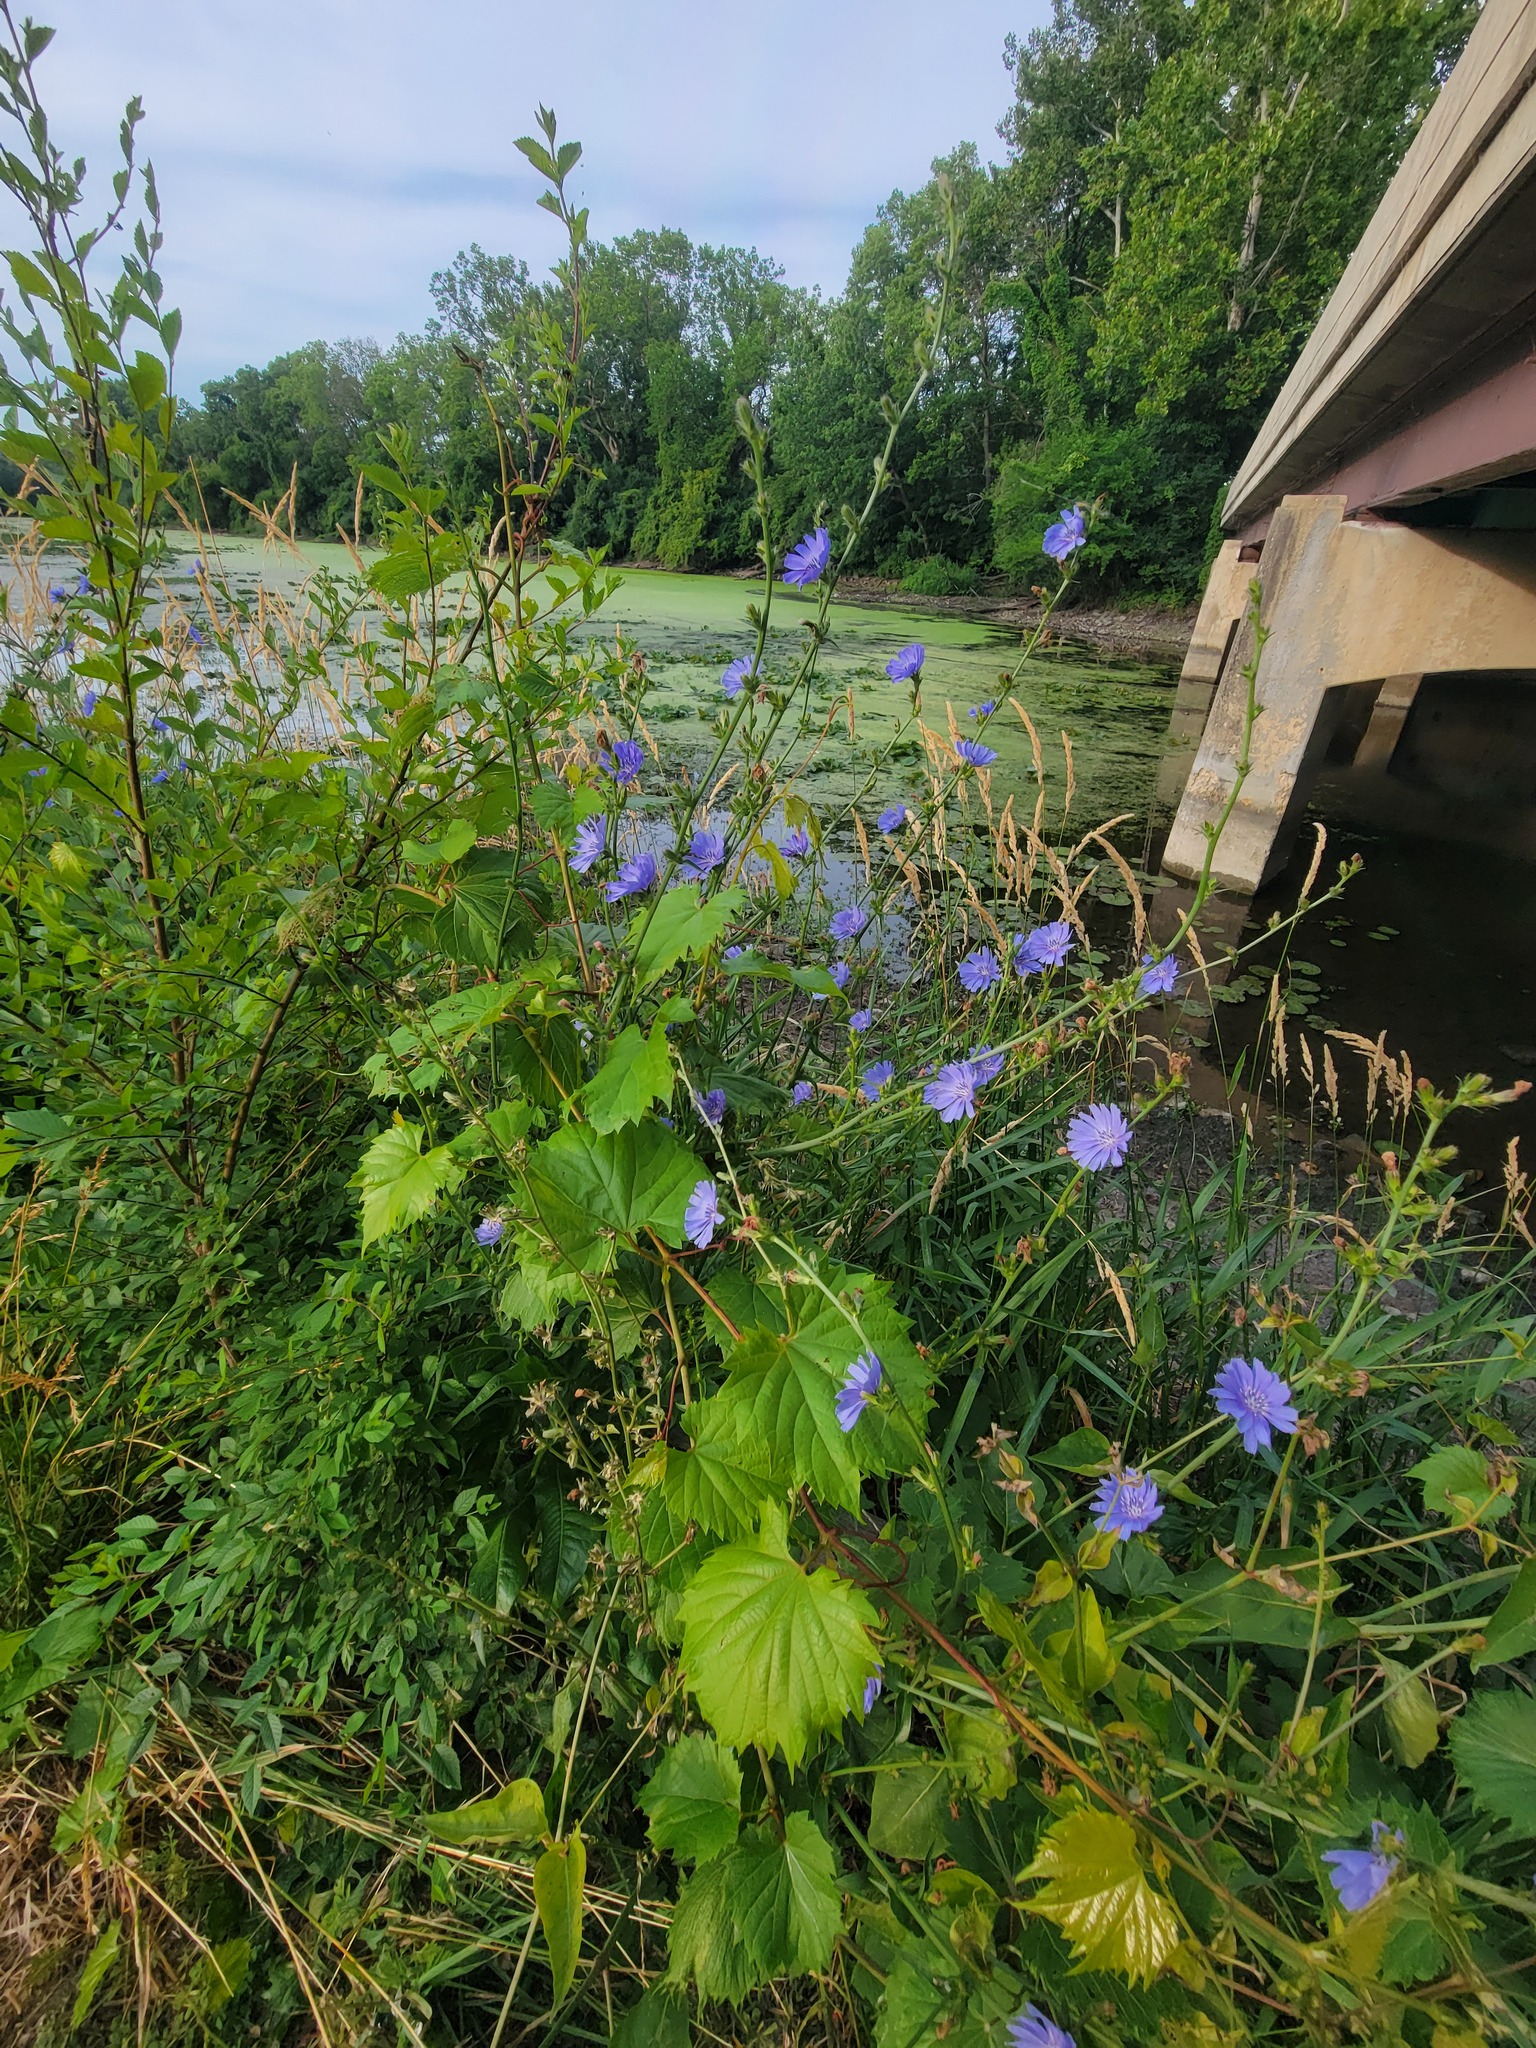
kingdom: Plantae
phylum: Tracheophyta
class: Magnoliopsida
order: Asterales
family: Asteraceae
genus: Cichorium
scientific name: Cichorium intybus
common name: Chicory
